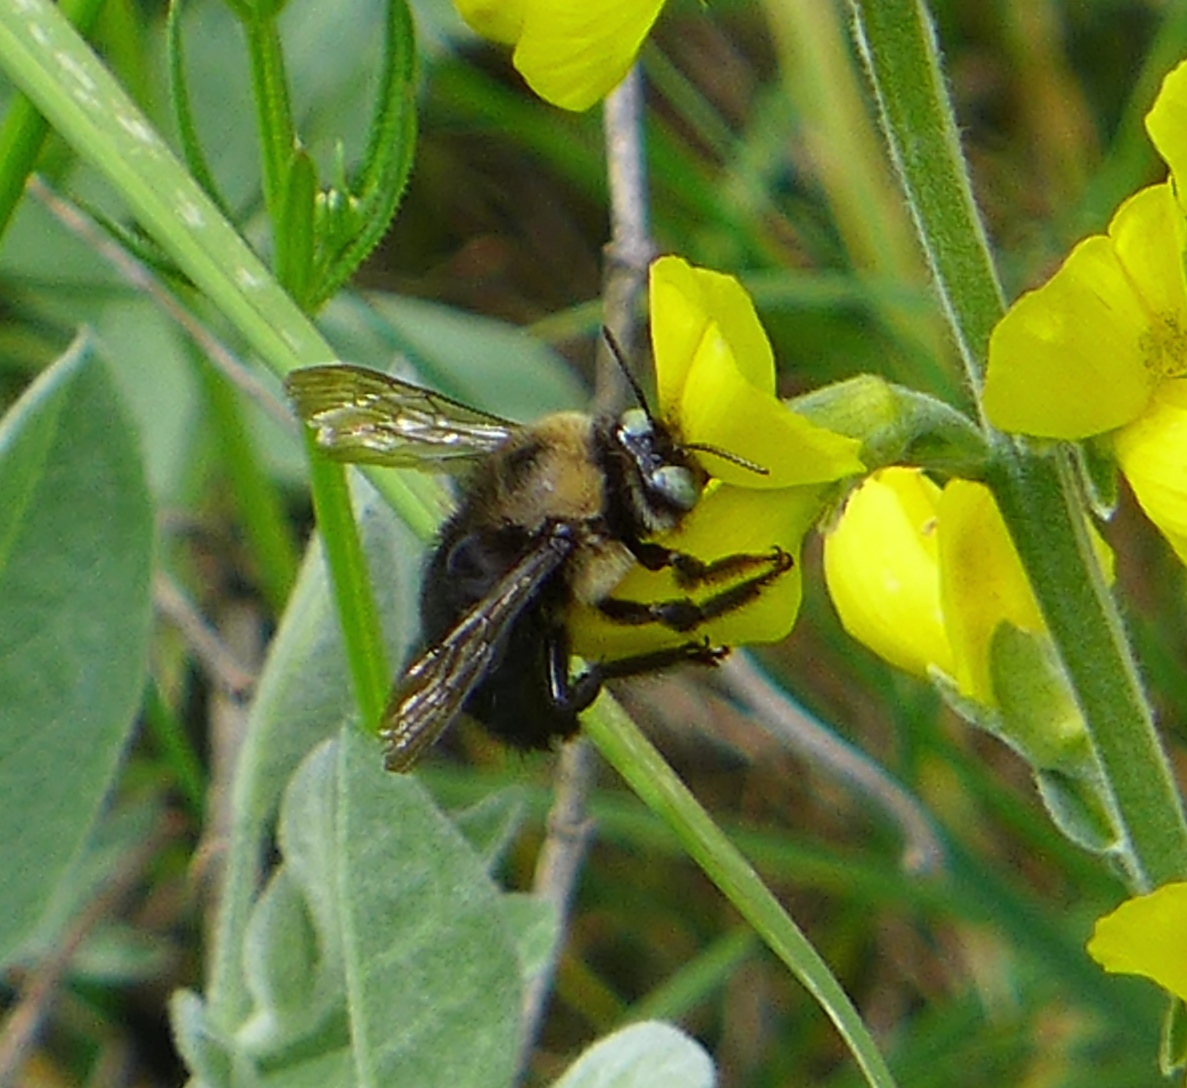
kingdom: Animalia
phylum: Arthropoda
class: Insecta
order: Hymenoptera
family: Apidae
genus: Xylocopa
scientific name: Xylocopa tabaniformis
